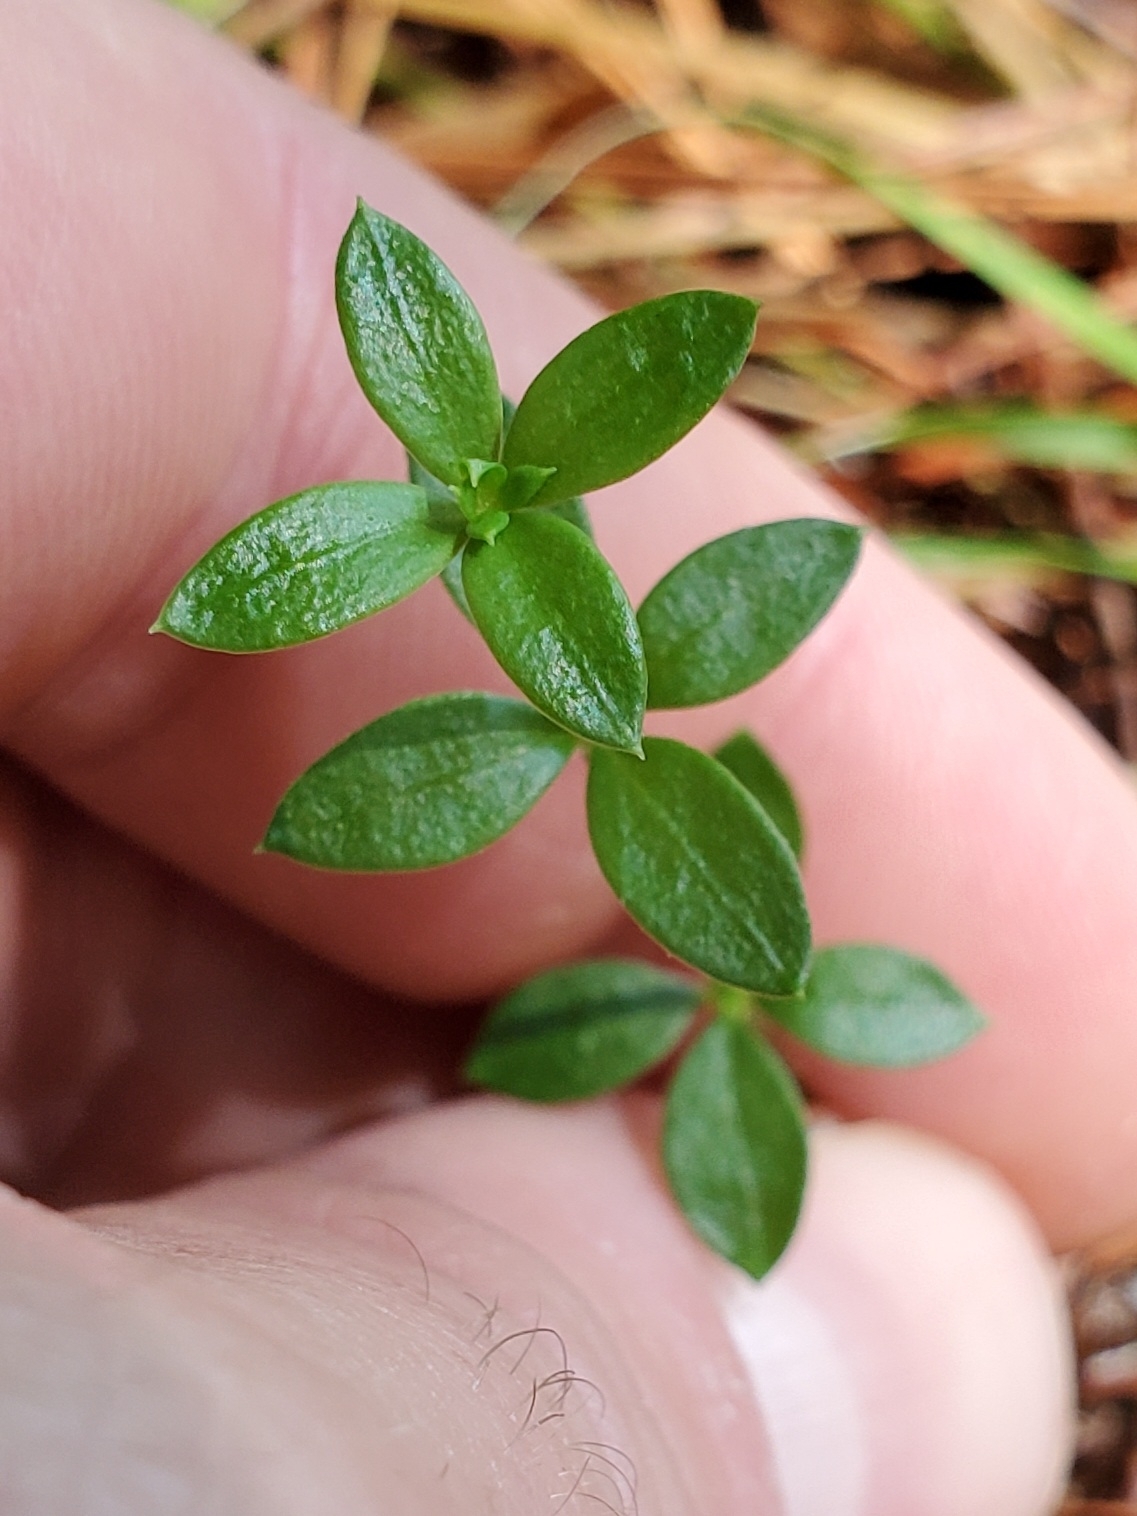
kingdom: Plantae
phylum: Tracheophyta
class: Magnoliopsida
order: Gentianales
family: Rubiaceae
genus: Galium
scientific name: Galium bermudense
